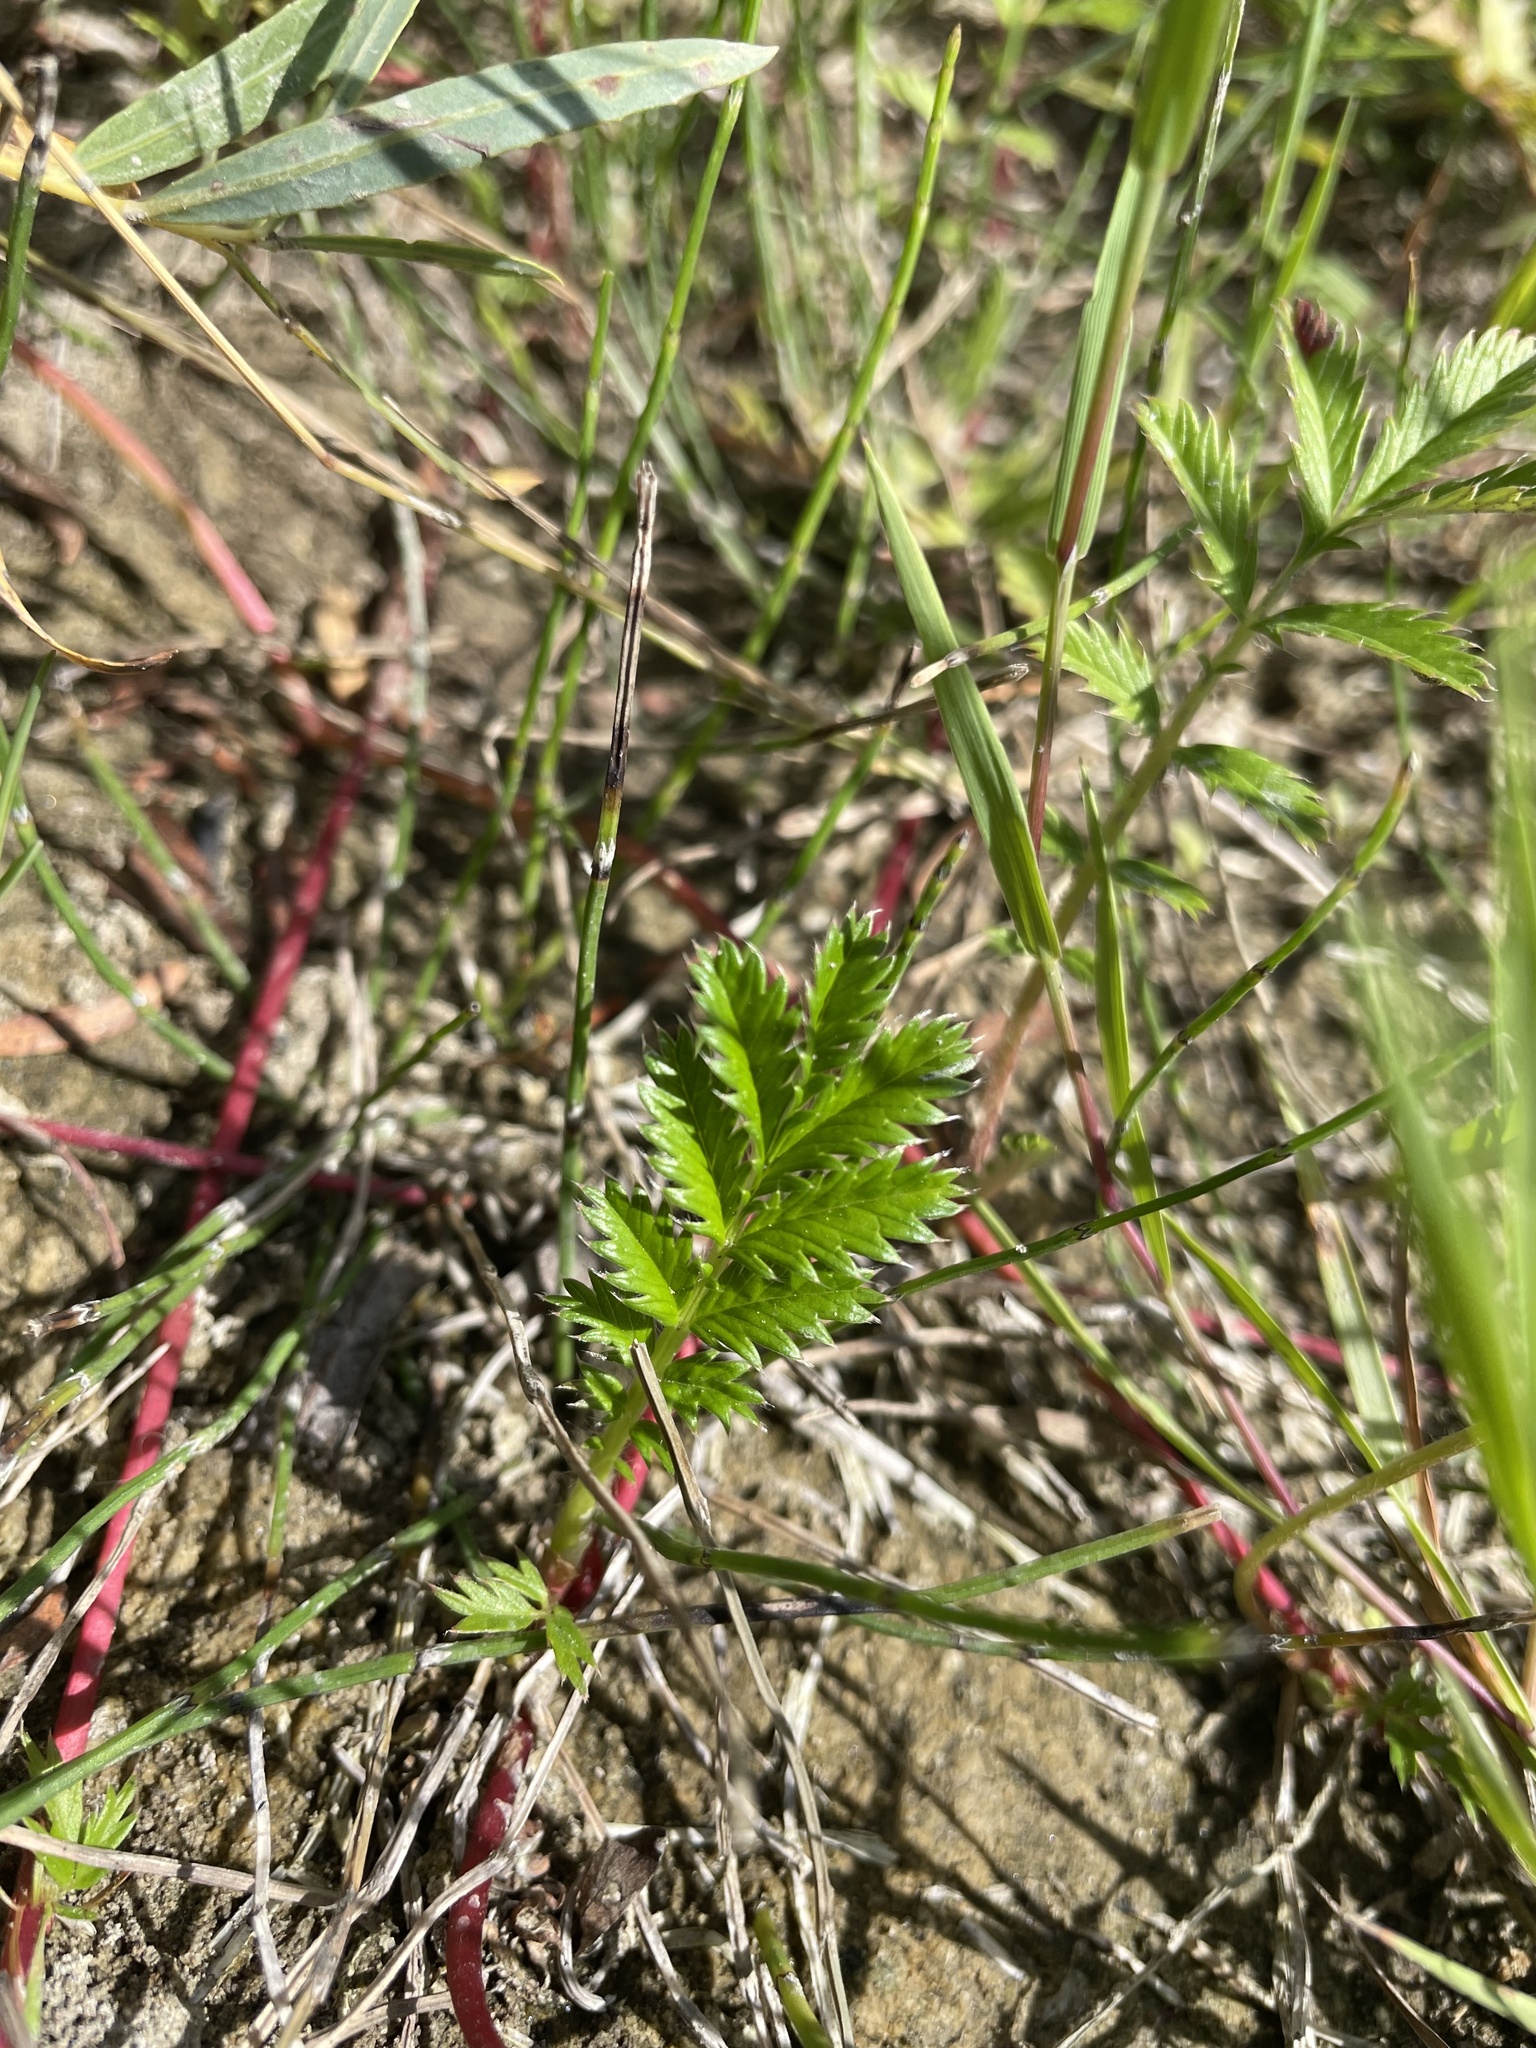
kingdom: Plantae
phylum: Tracheophyta
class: Magnoliopsida
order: Rosales
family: Rosaceae
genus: Argentina
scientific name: Argentina anserina
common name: Common silverweed
